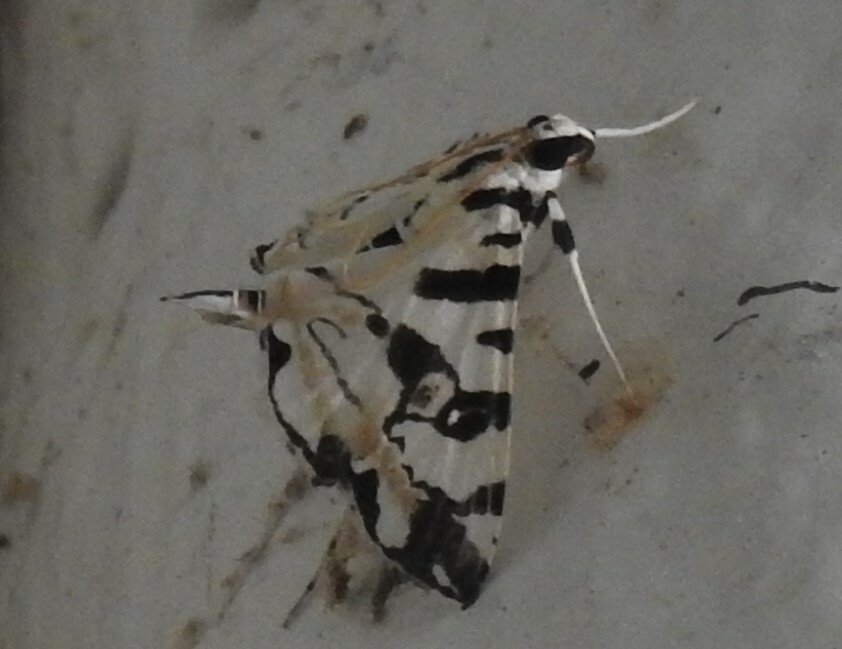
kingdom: Animalia
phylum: Arthropoda
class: Insecta
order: Lepidoptera
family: Crambidae
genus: Conchylodes
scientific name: Conchylodes salamisalis
